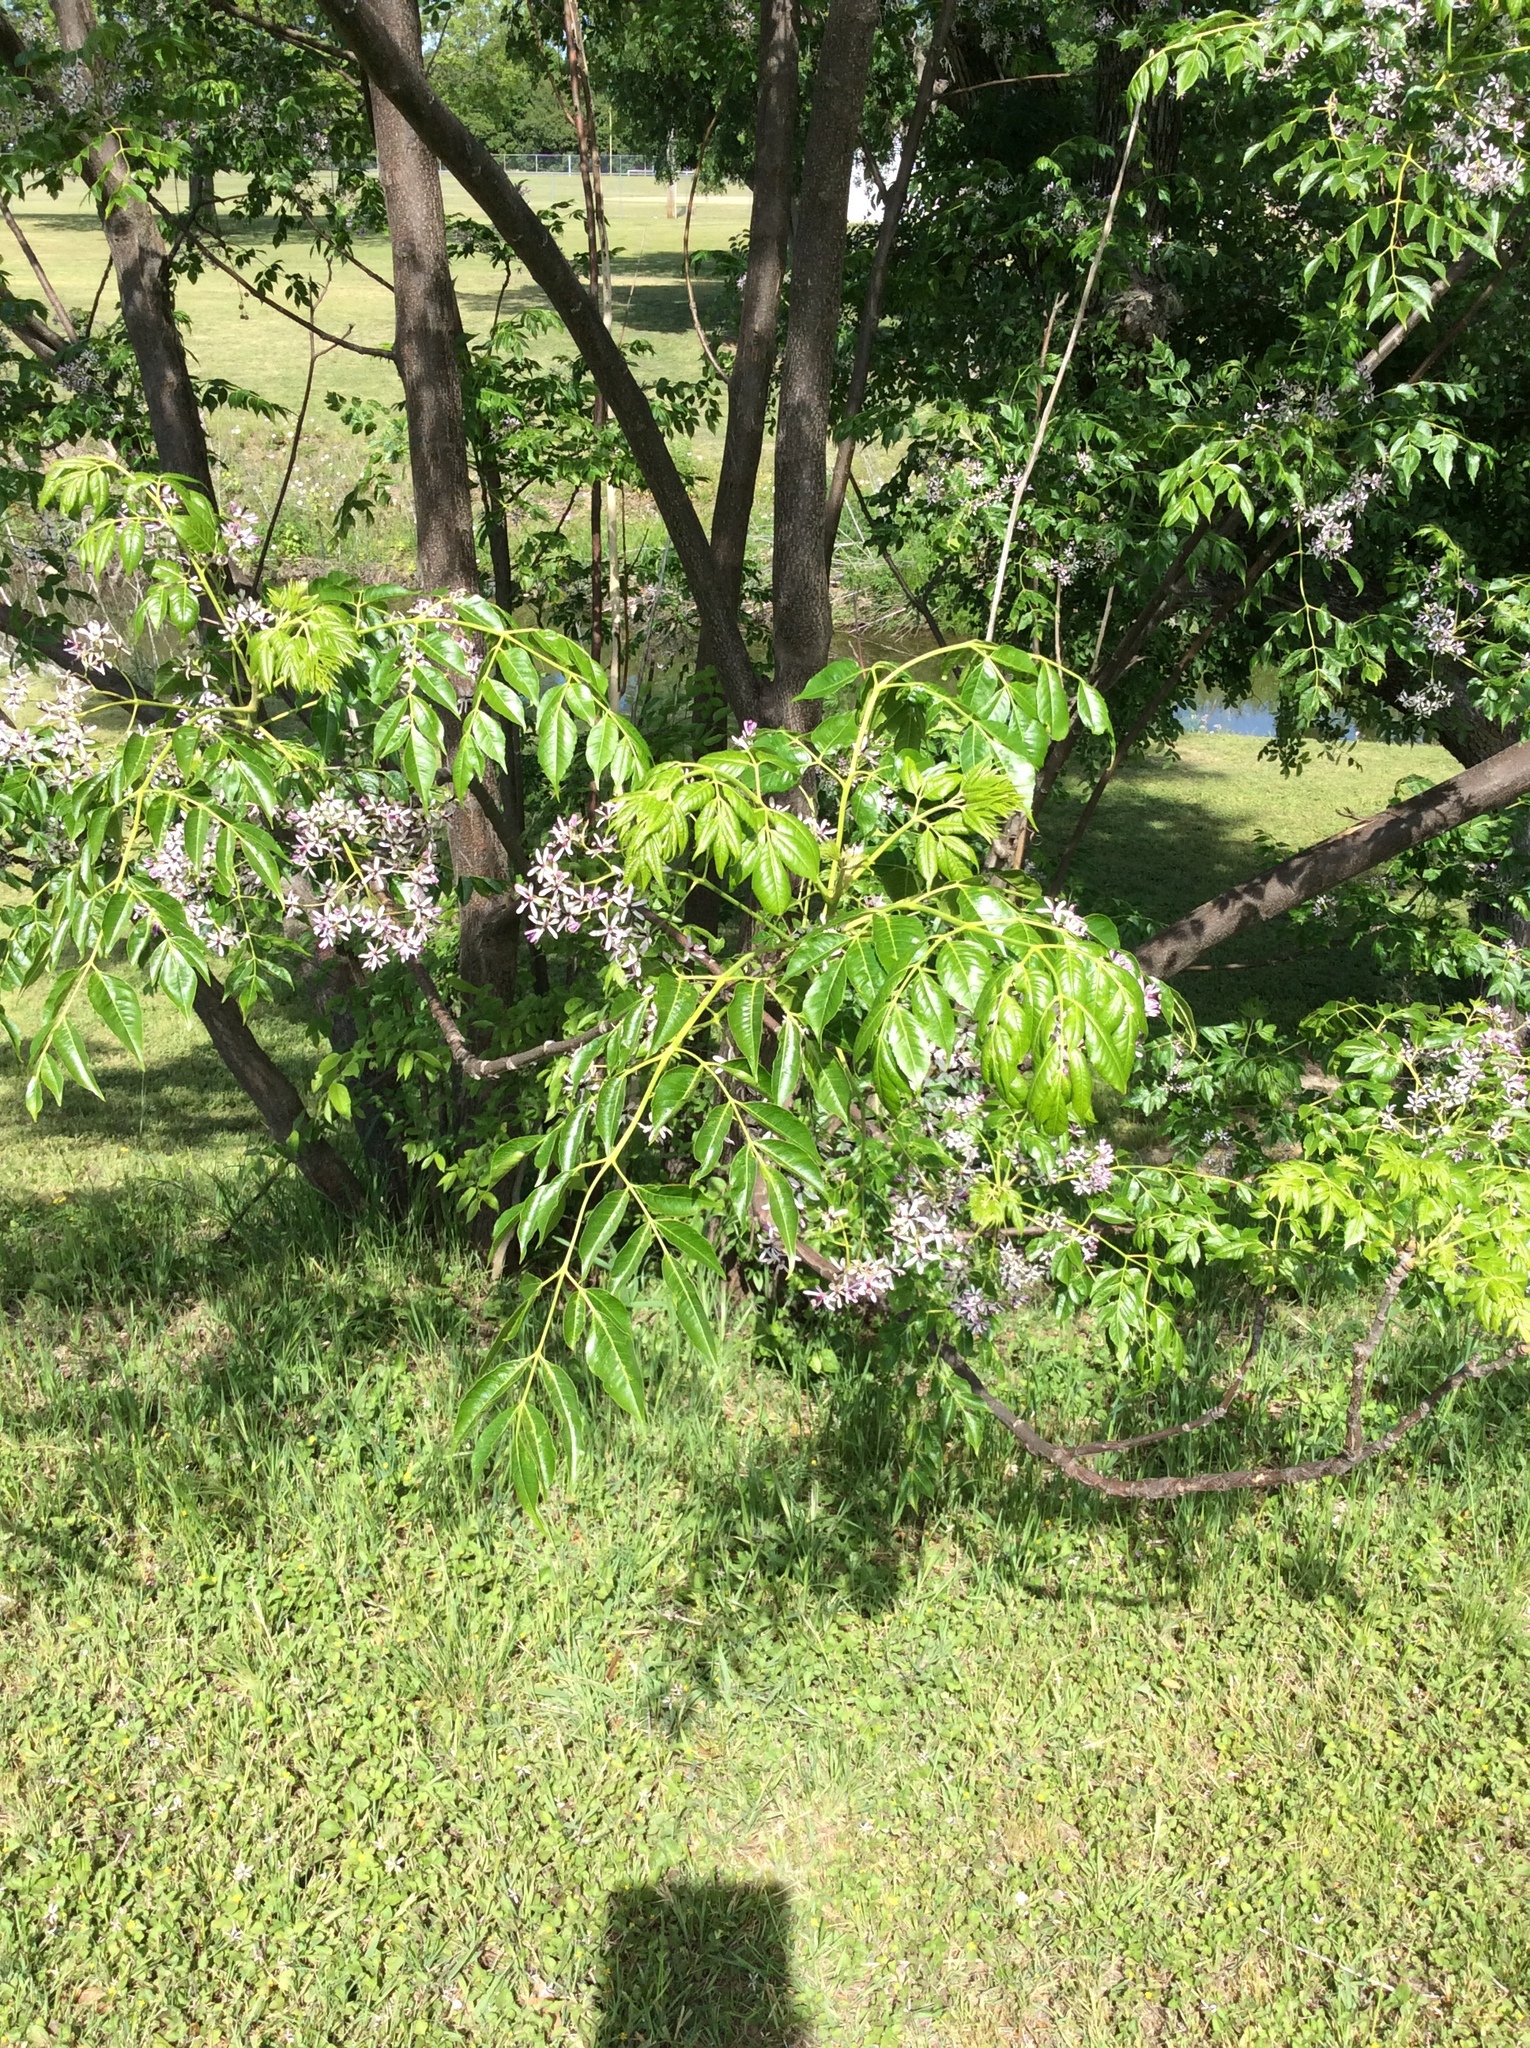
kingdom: Plantae
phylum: Tracheophyta
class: Magnoliopsida
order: Sapindales
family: Meliaceae
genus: Melia
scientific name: Melia azedarach
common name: Chinaberrytree
